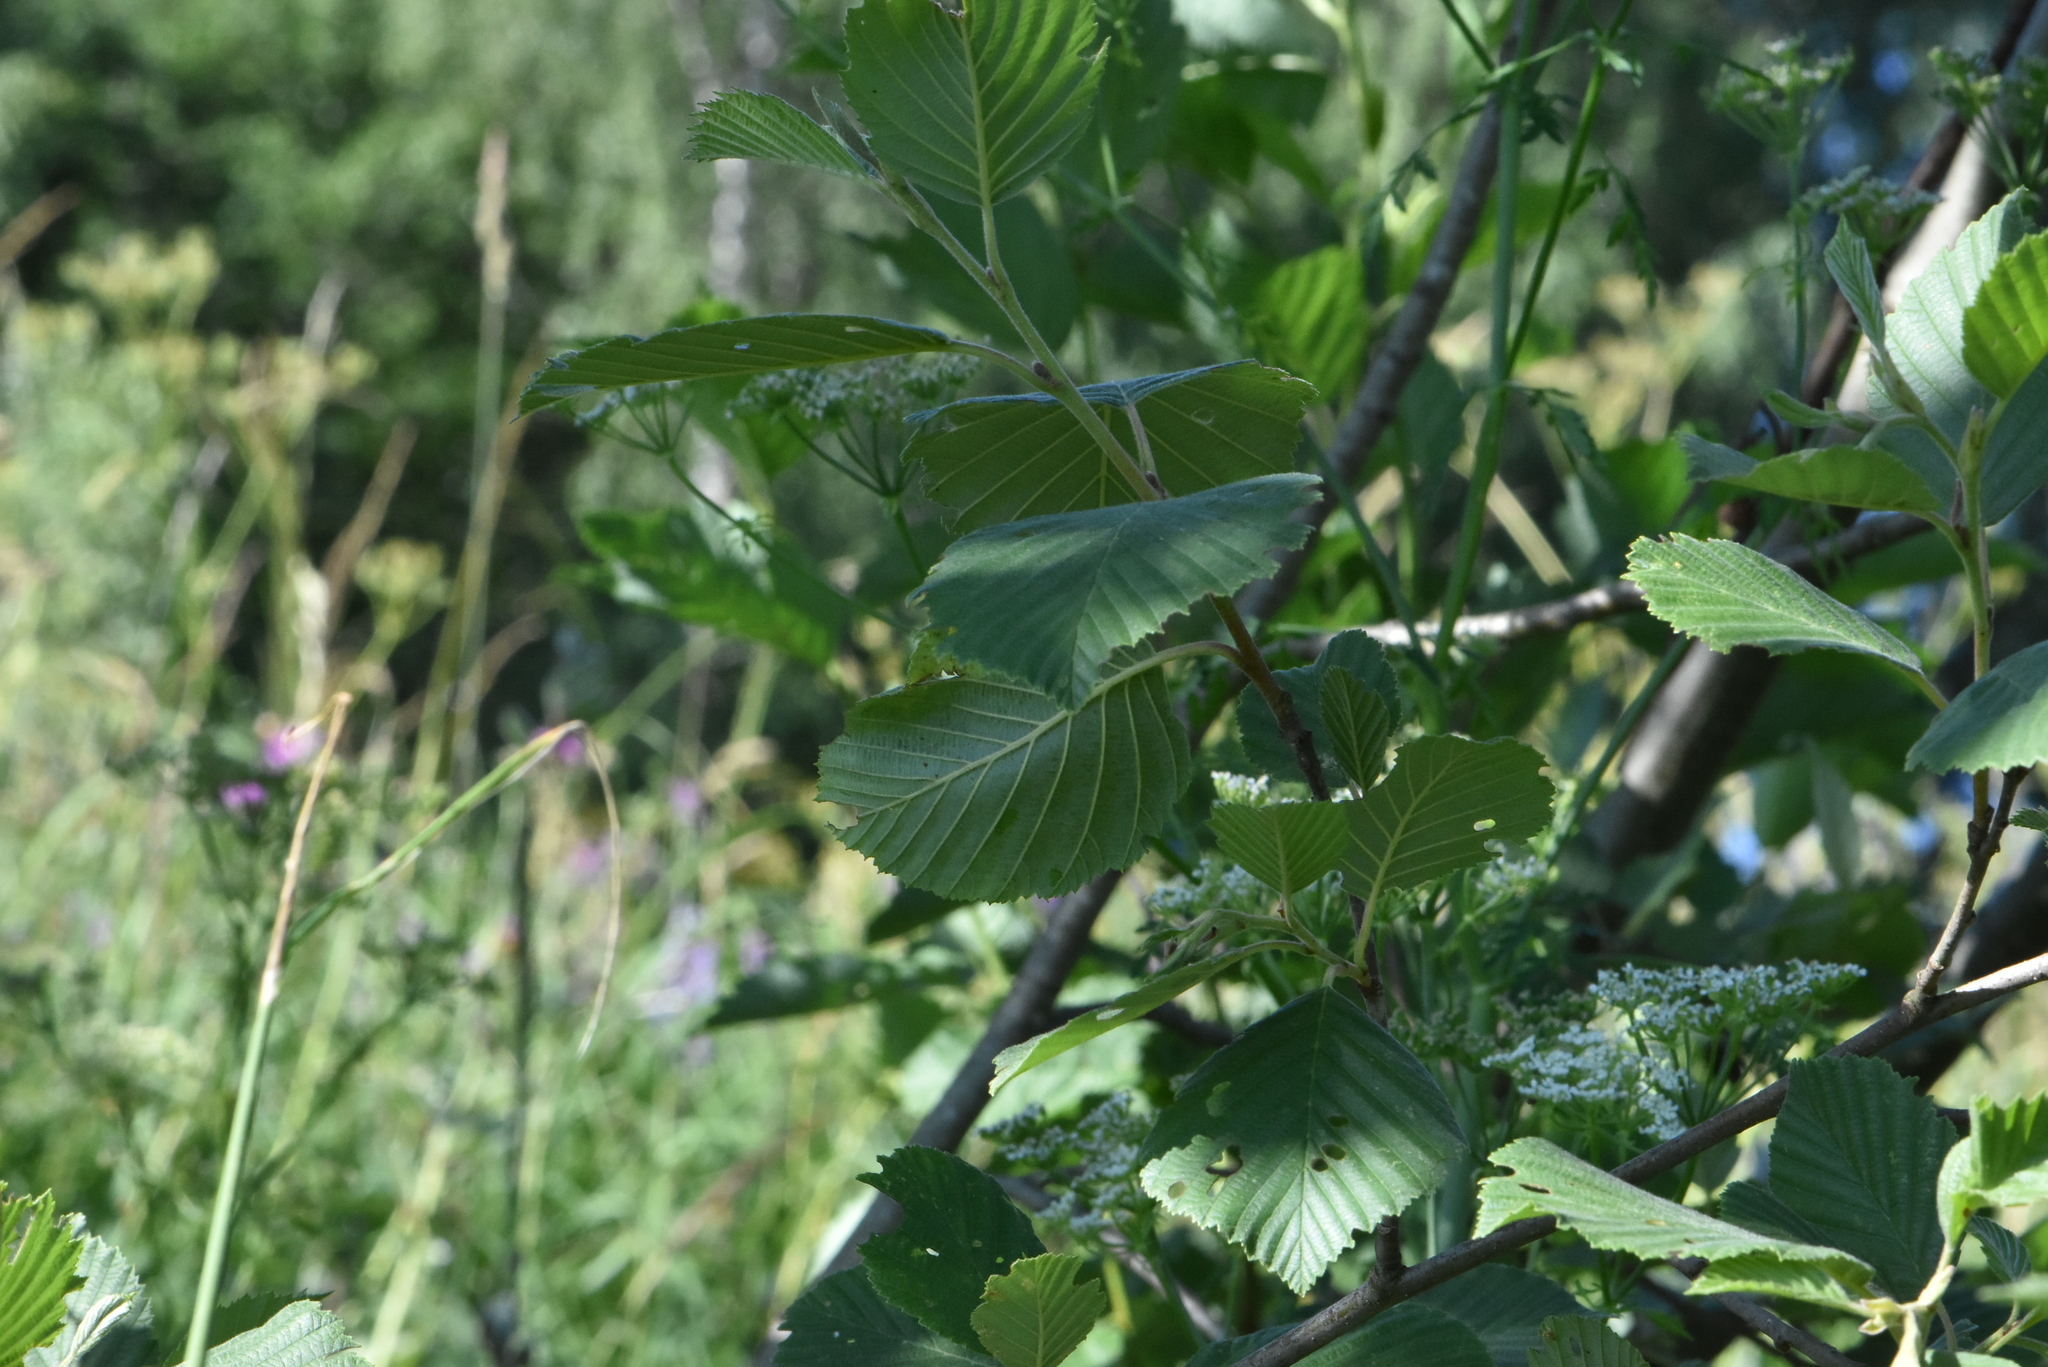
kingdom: Plantae
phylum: Tracheophyta
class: Magnoliopsida
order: Fagales
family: Betulaceae
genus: Alnus
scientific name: Alnus incana
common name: Grey alder
